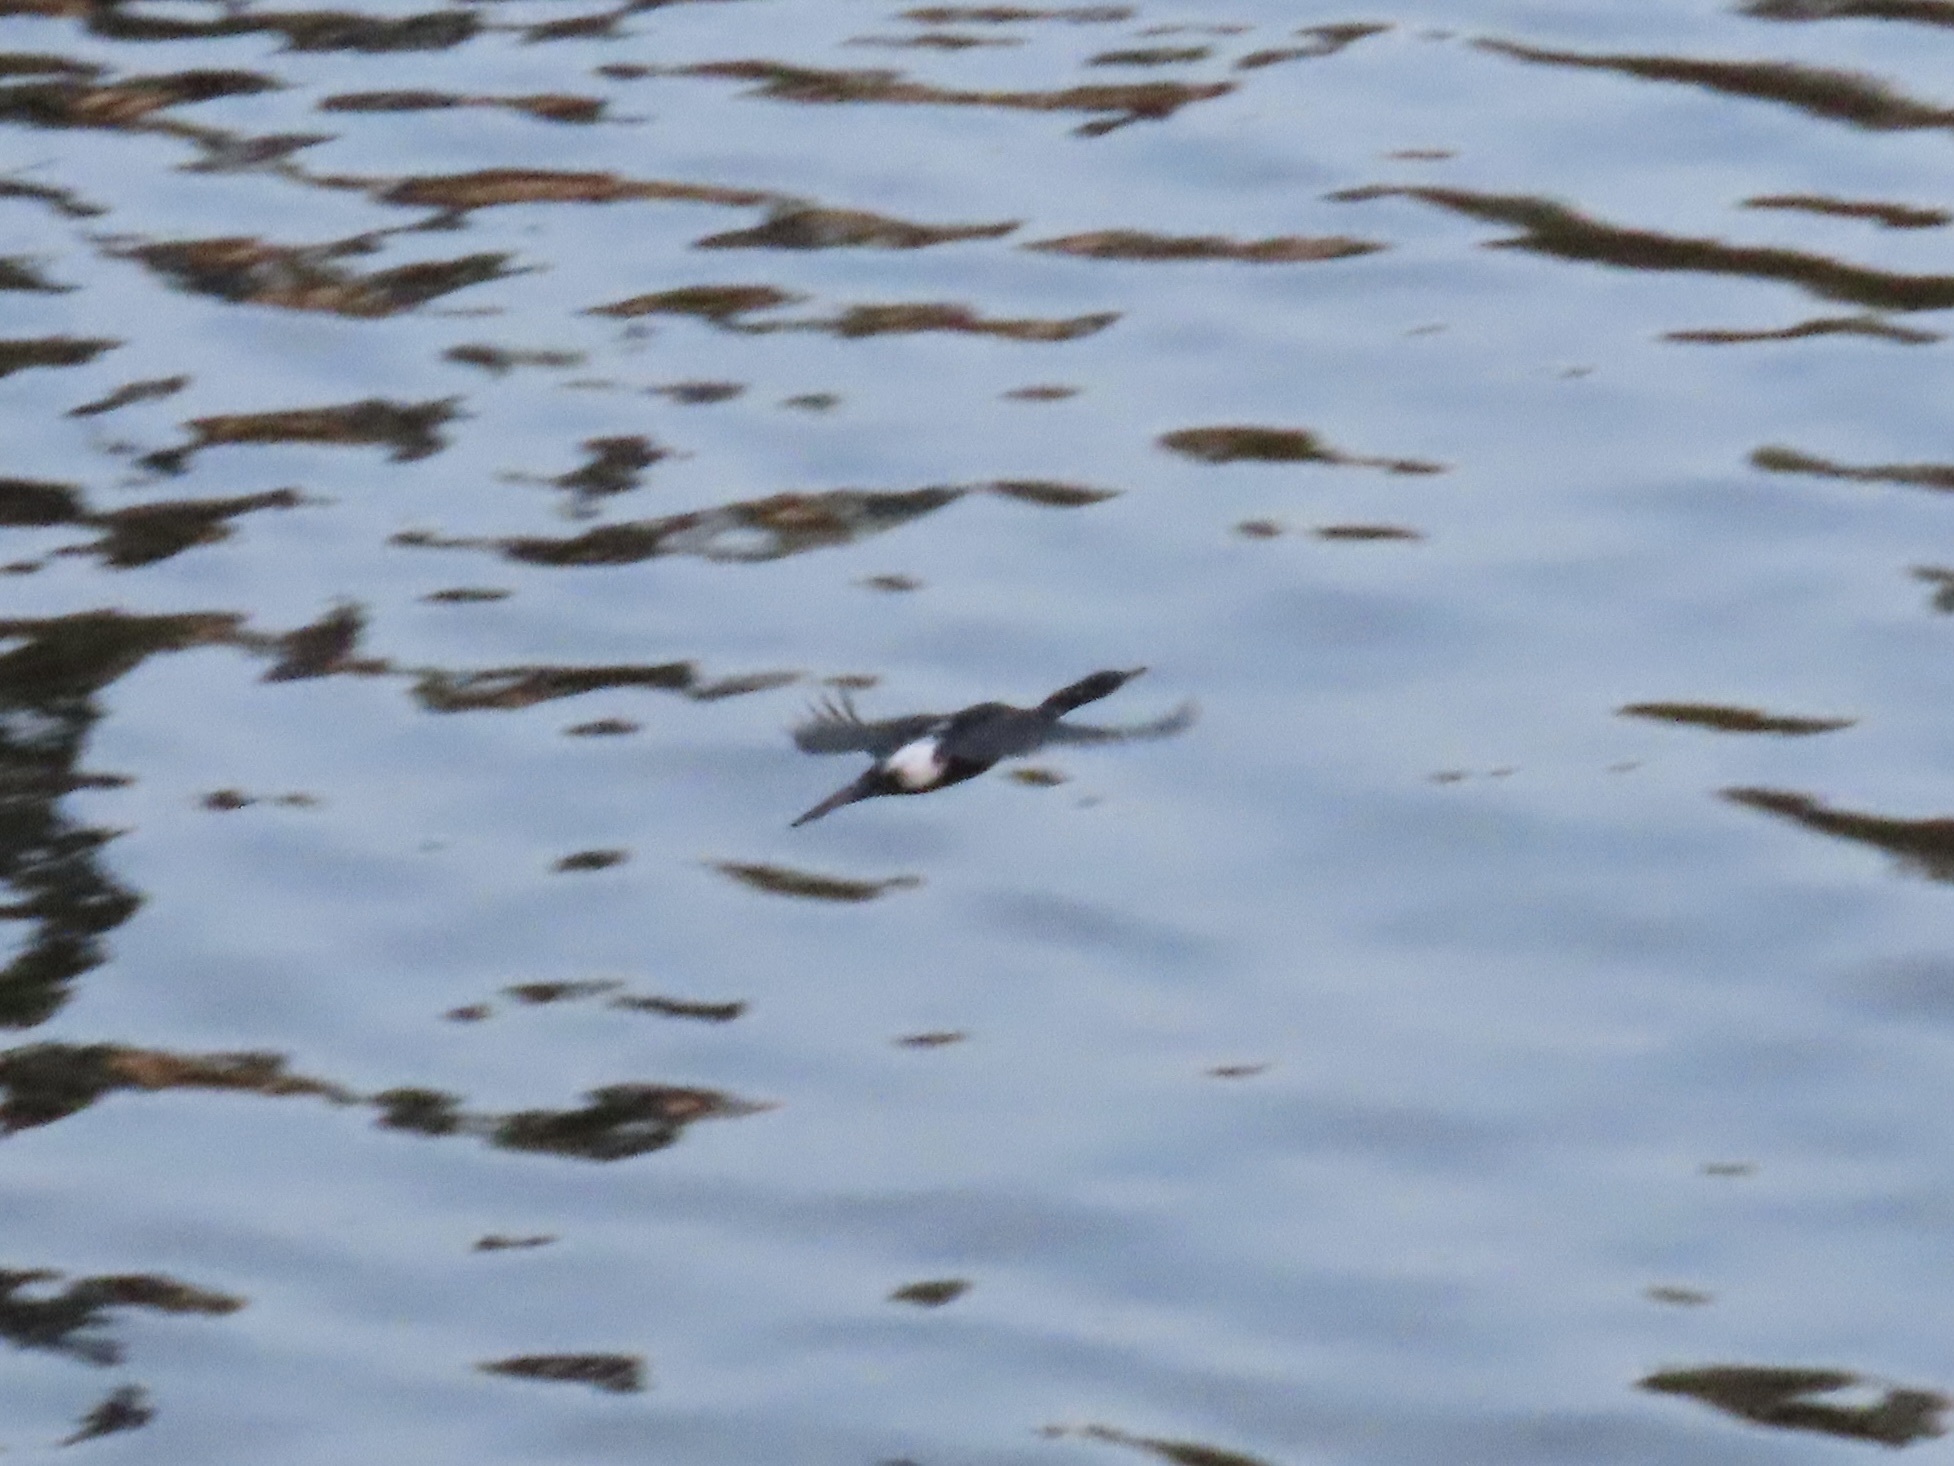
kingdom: Animalia
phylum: Chordata
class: Aves
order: Suliformes
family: Phalacrocoracidae
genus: Phalacrocorax
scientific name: Phalacrocorax pelagicus
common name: Pelagic cormorant
